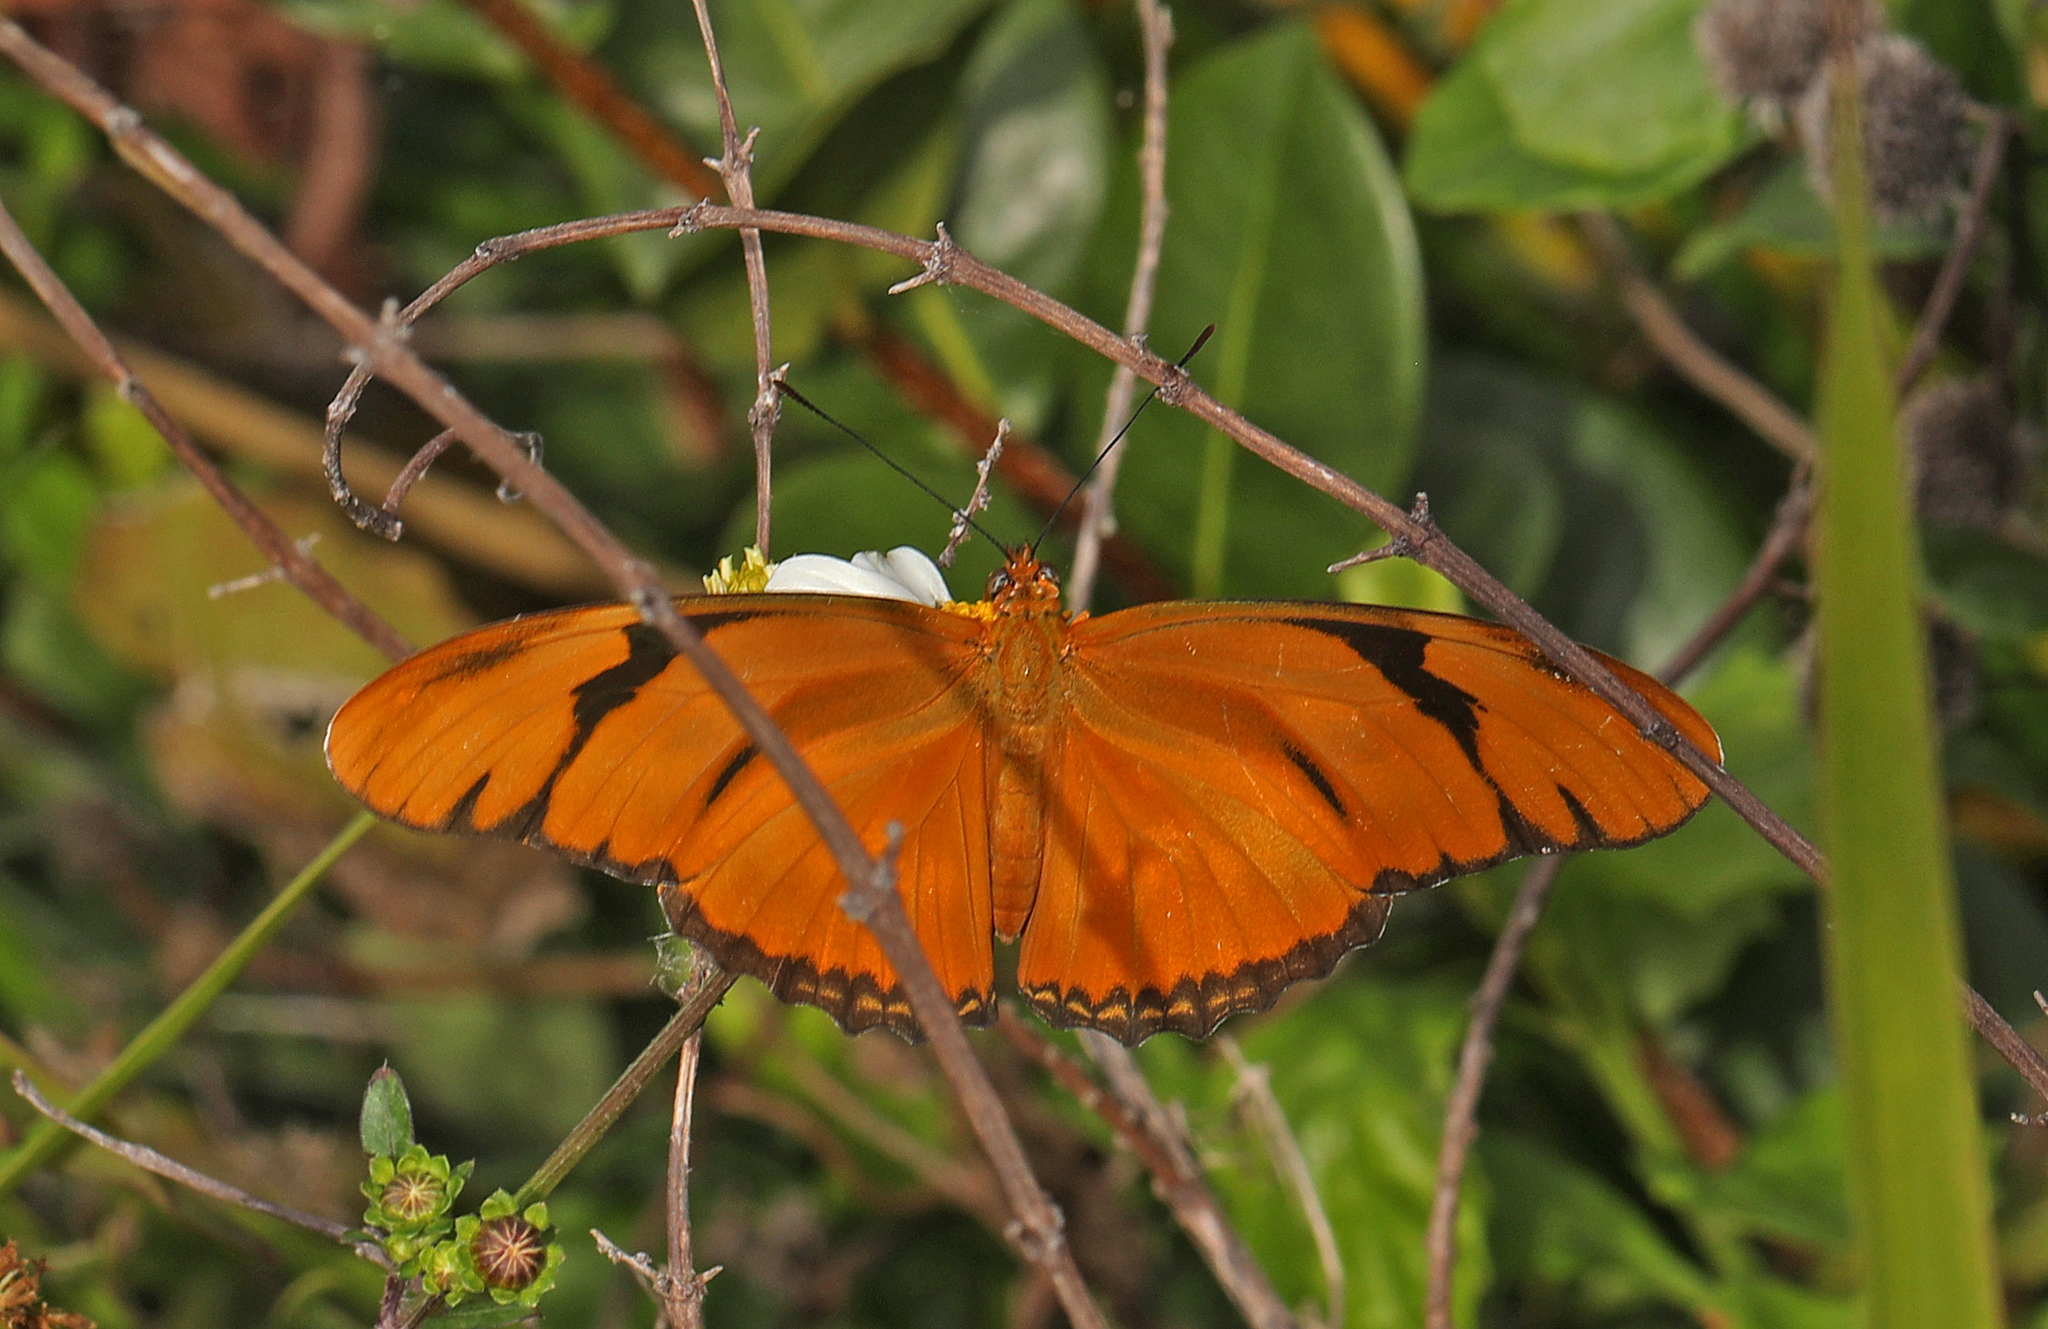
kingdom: Animalia
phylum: Arthropoda
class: Insecta
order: Lepidoptera
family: Nymphalidae
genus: Dryas
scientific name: Dryas iulia
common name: Flambeau
